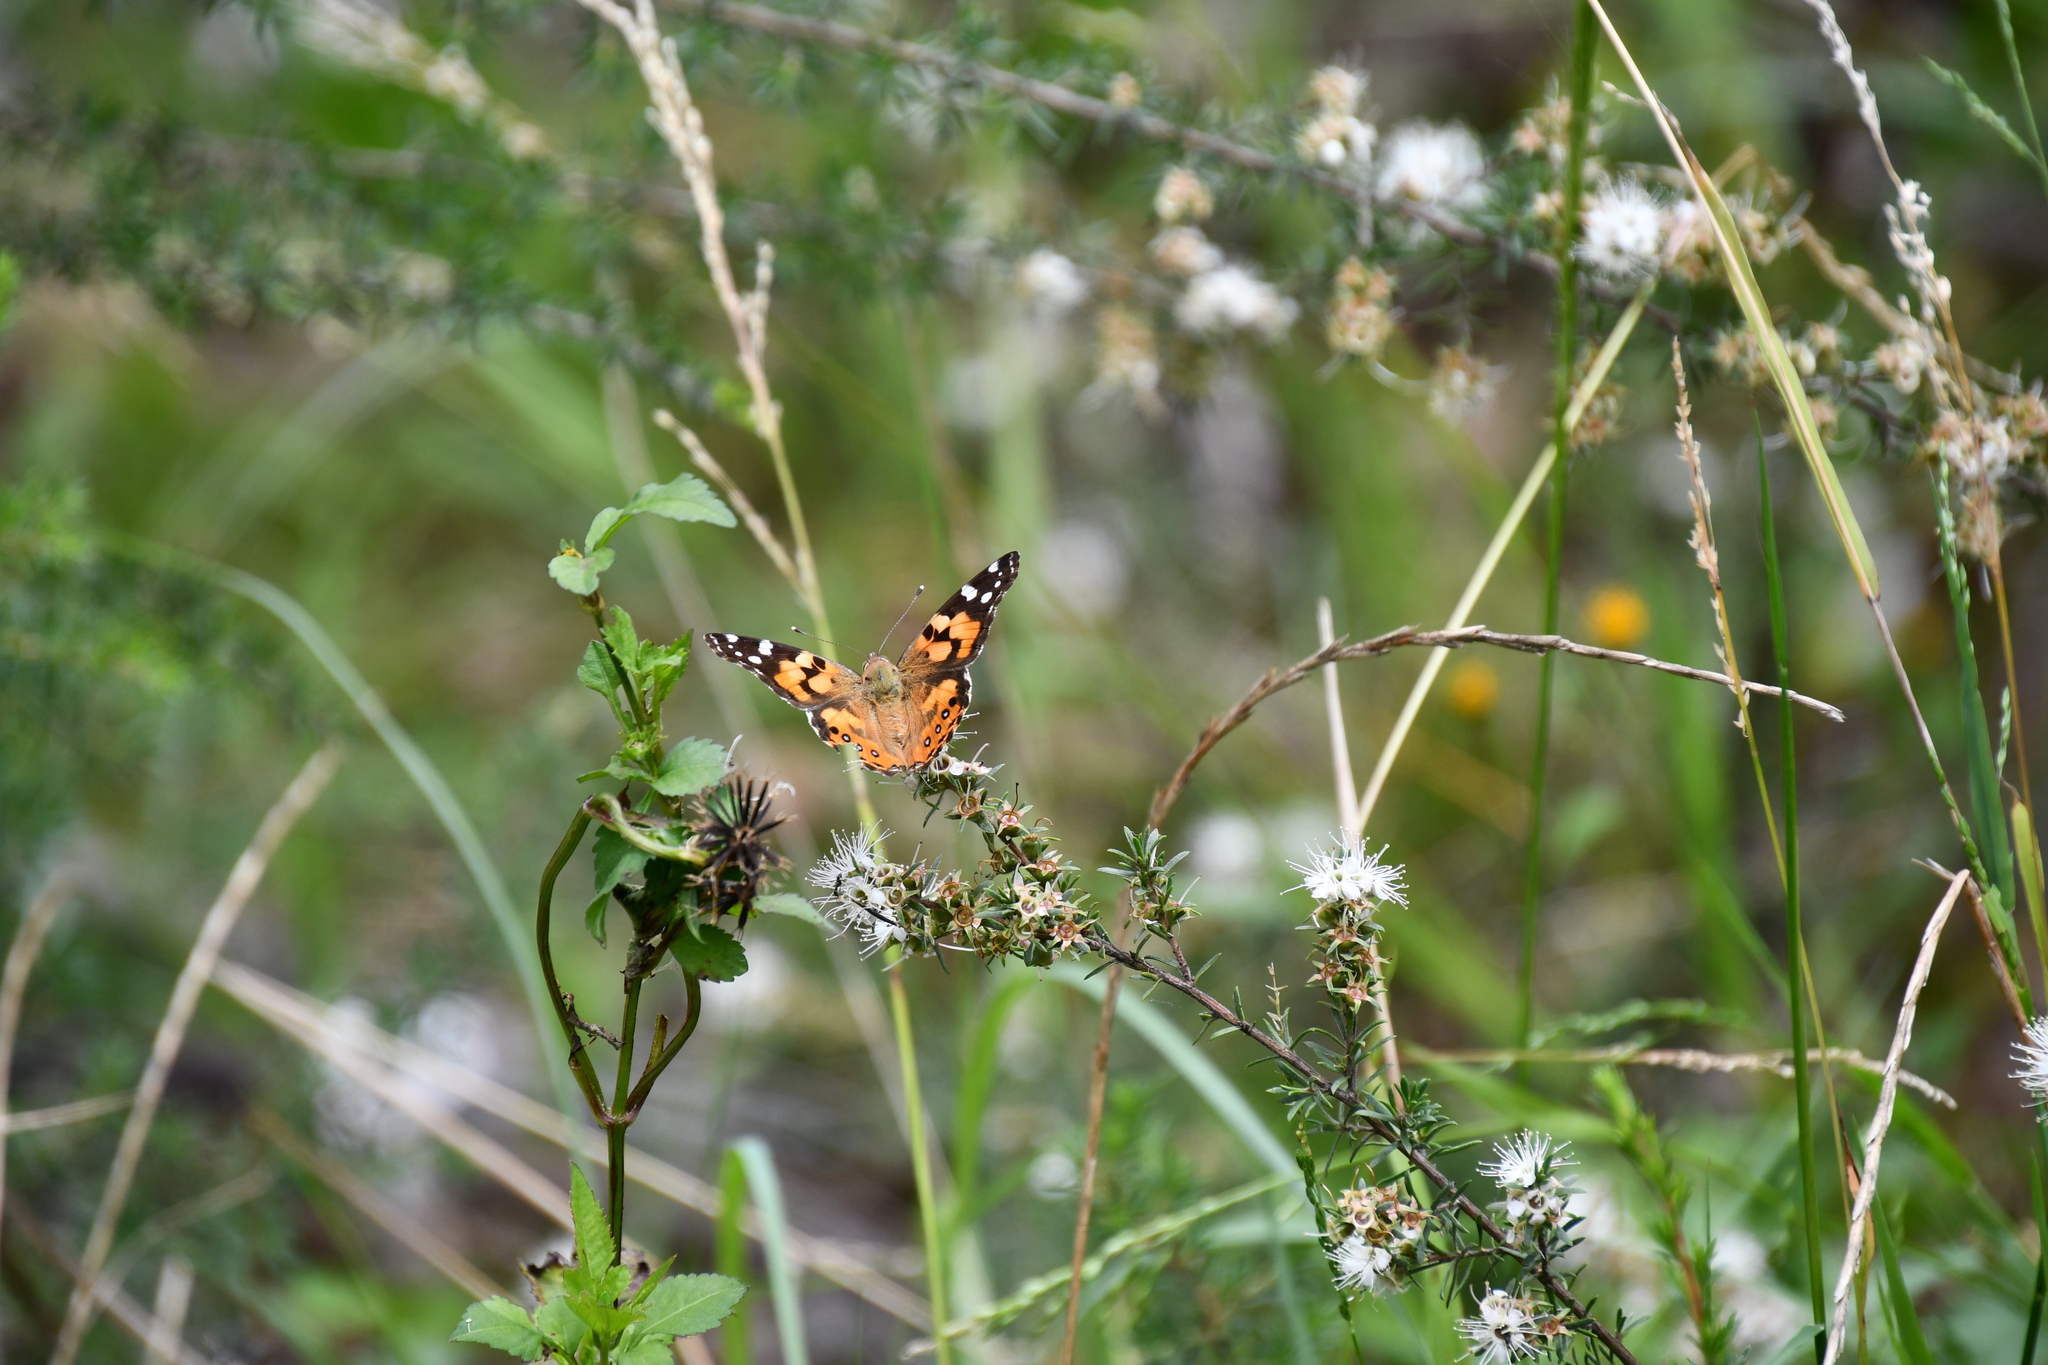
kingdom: Animalia
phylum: Arthropoda
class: Insecta
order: Lepidoptera
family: Nymphalidae
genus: Vanessa
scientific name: Vanessa kershawi
